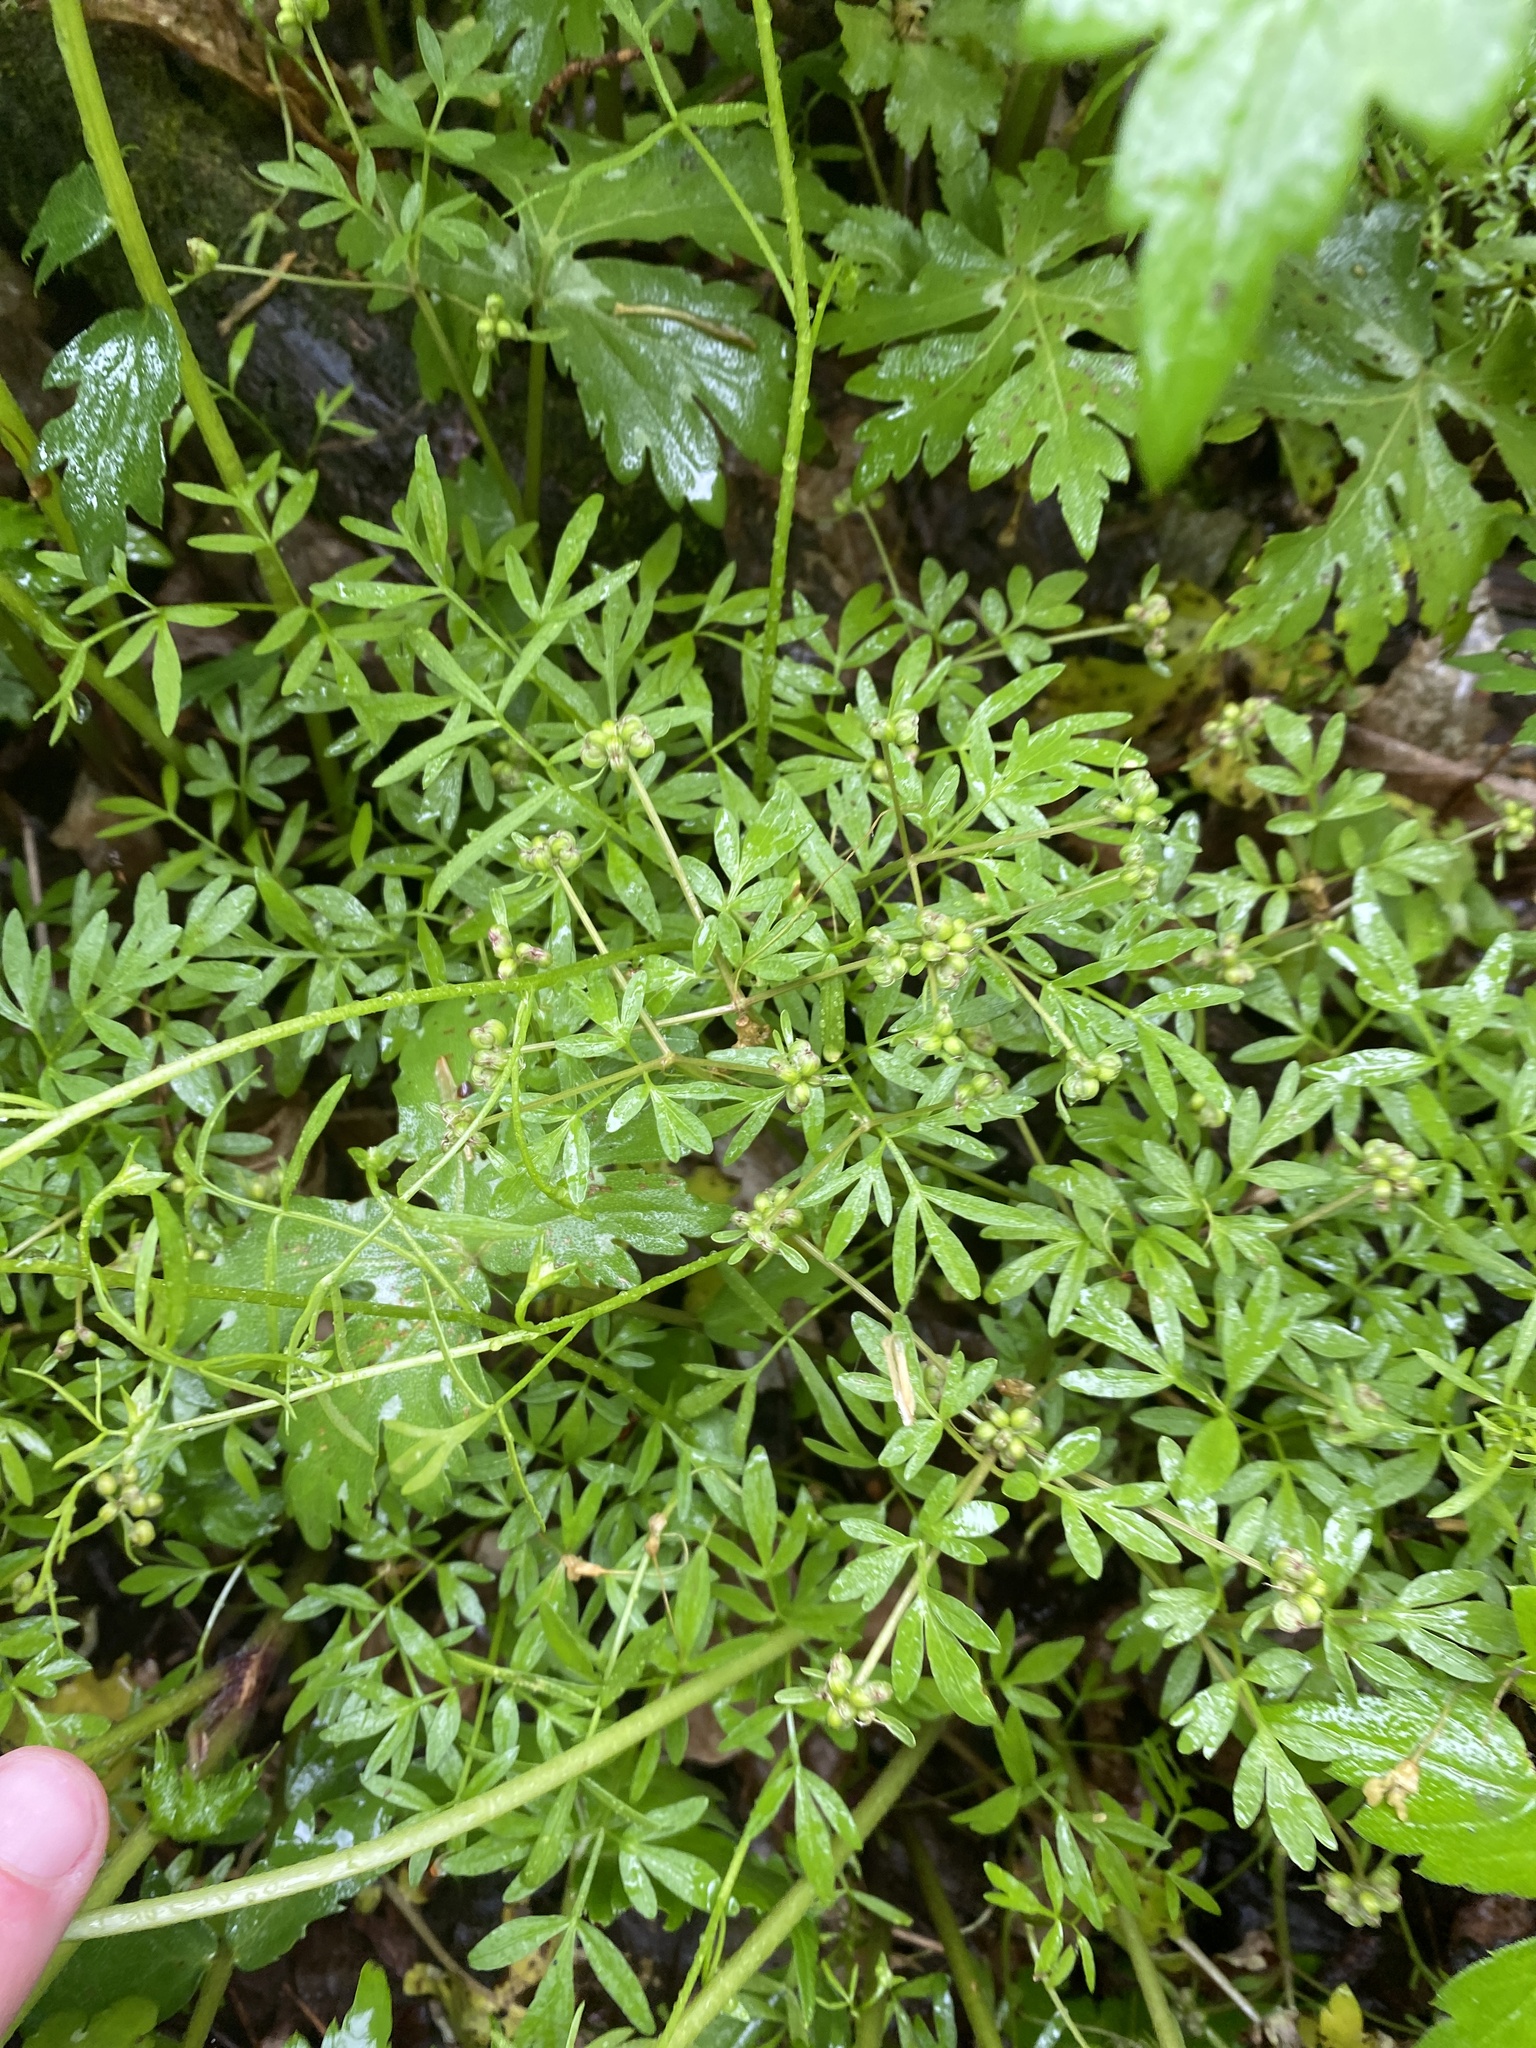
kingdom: Plantae
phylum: Tracheophyta
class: Magnoliopsida
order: Apiales
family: Apiaceae
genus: Erigenia
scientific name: Erigenia bulbosa
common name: Pepper-and-salt
